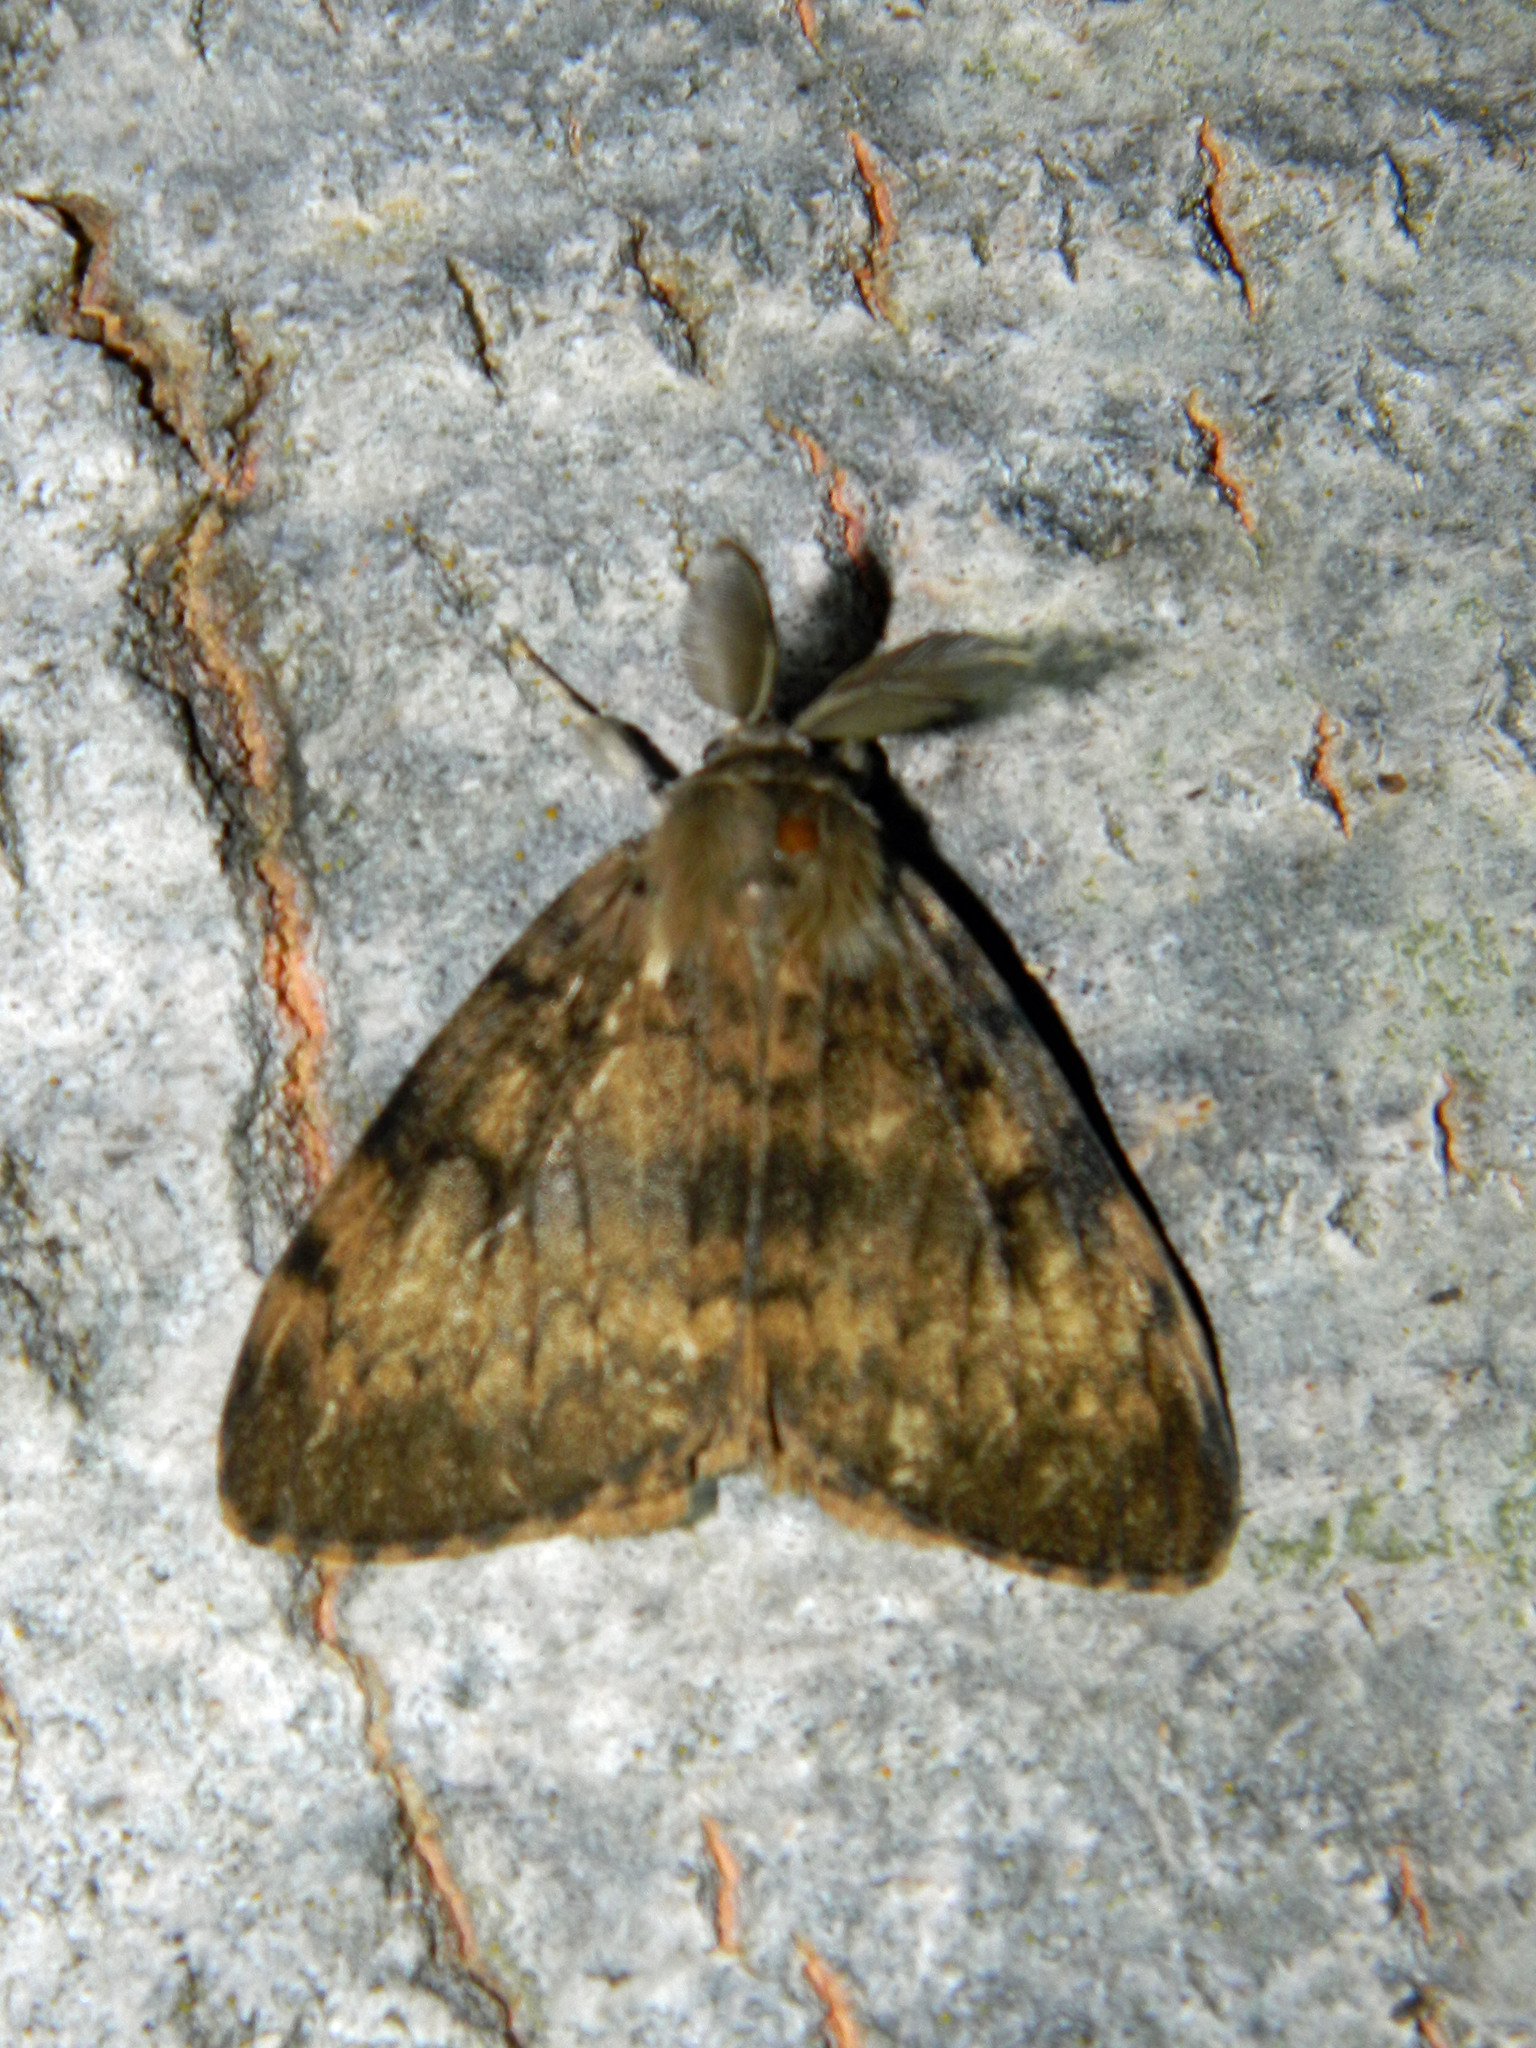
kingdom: Animalia
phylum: Arthropoda
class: Insecta
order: Lepidoptera
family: Erebidae
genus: Lymantria
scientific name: Lymantria dispar
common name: Gypsy moth
